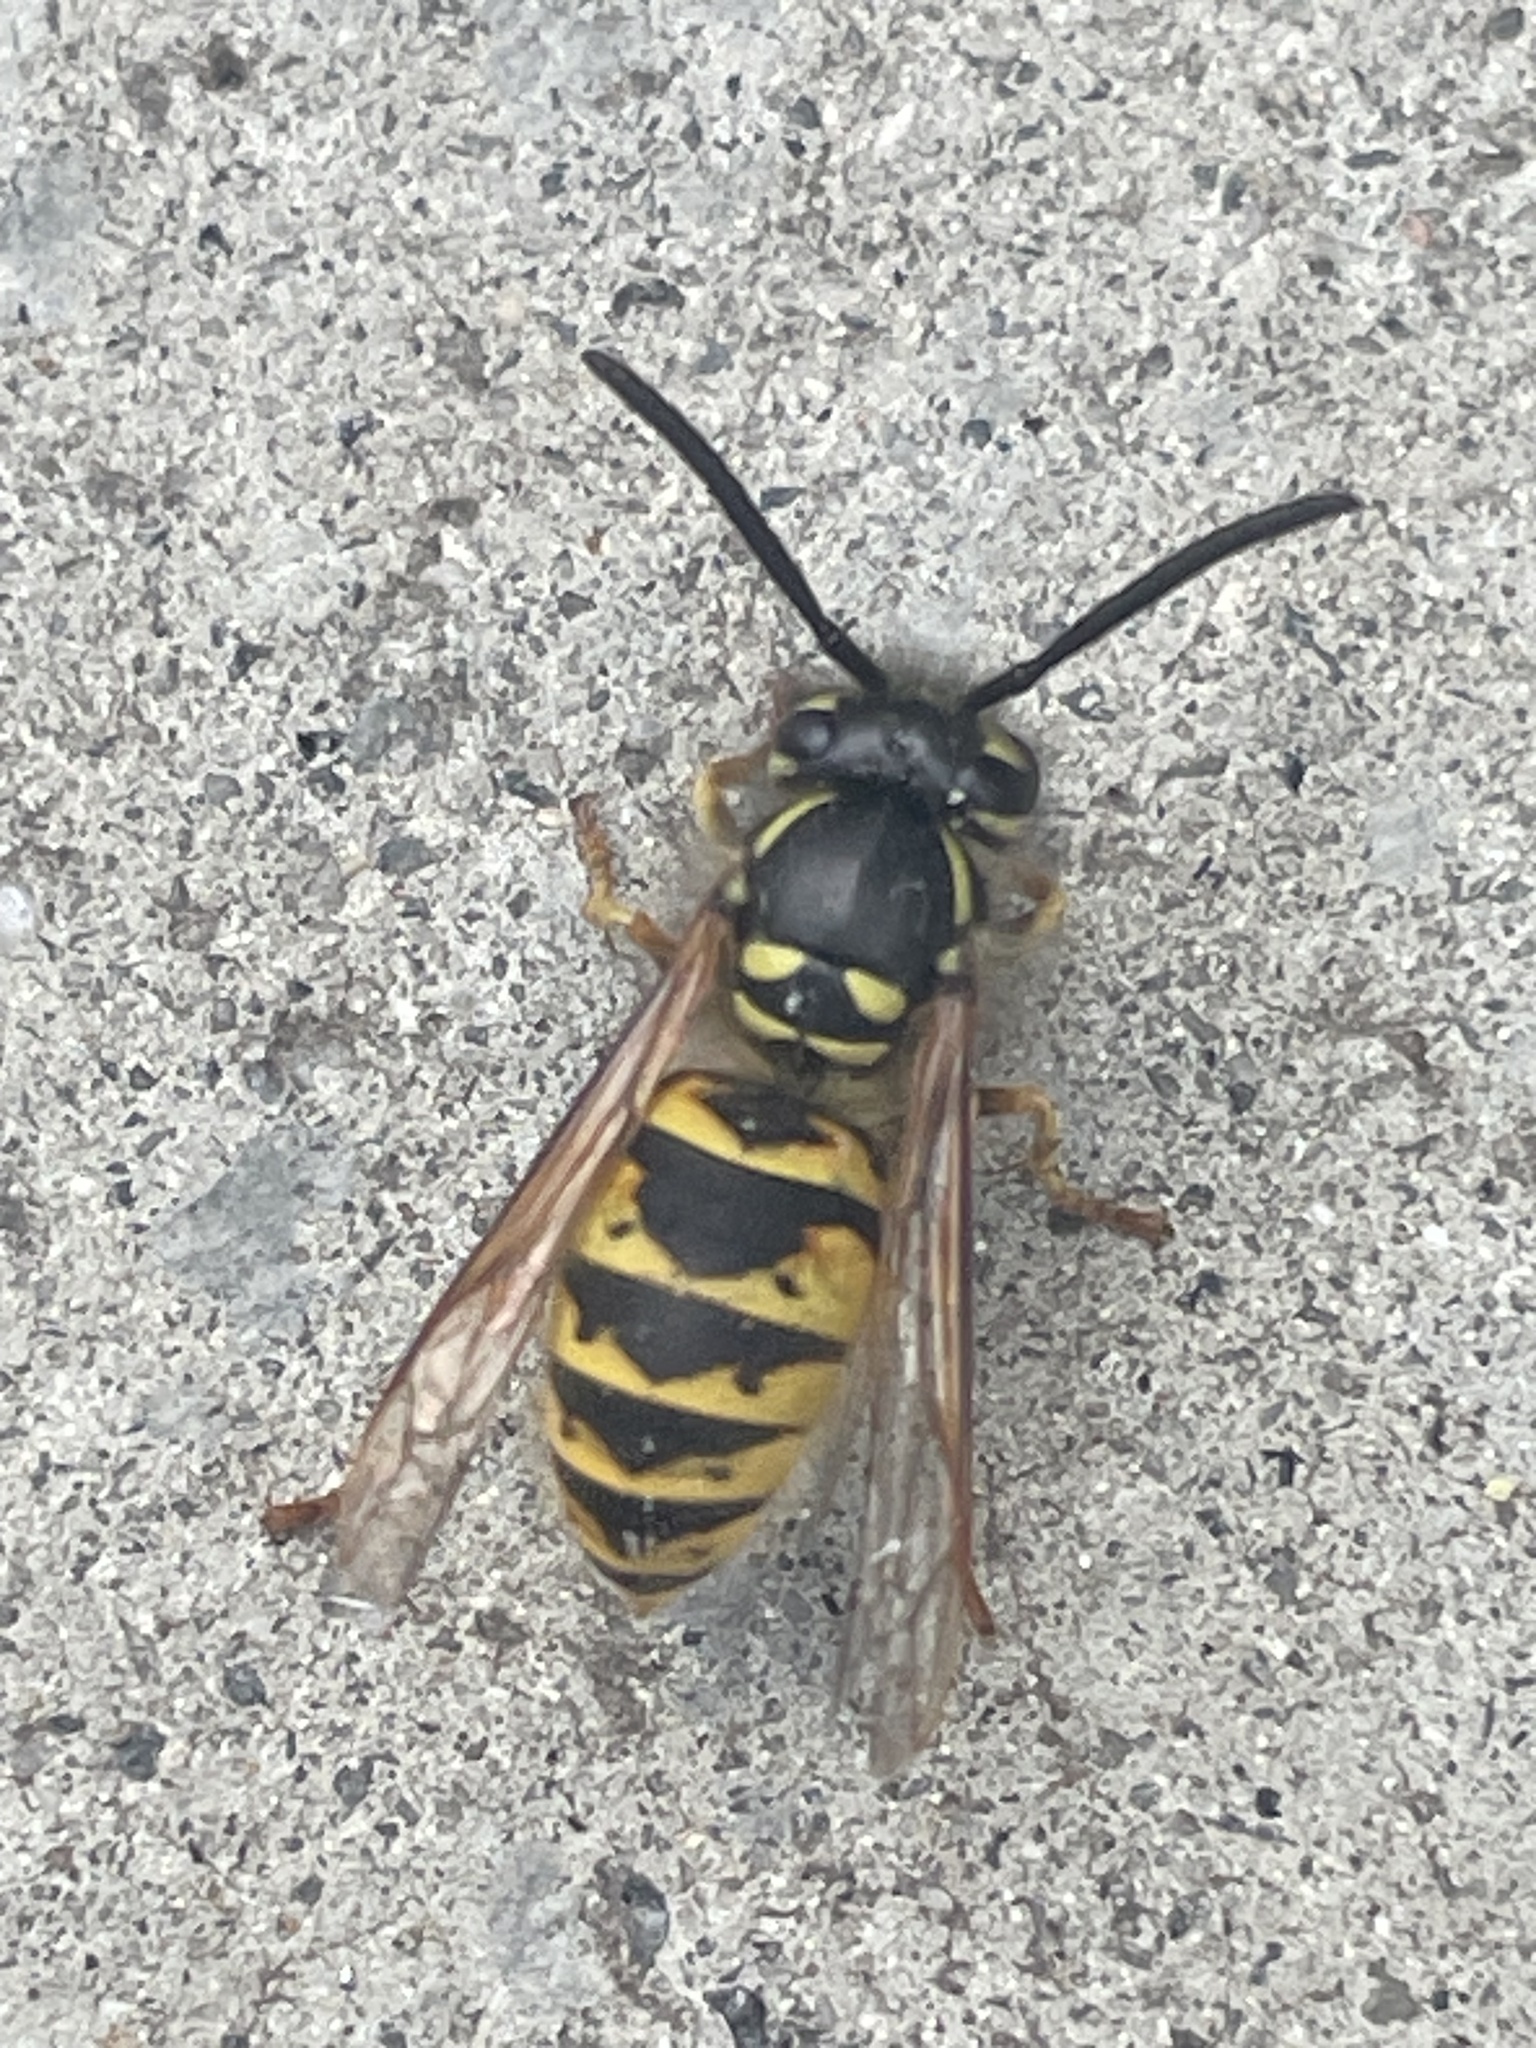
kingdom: Animalia
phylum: Arthropoda
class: Insecta
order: Hymenoptera
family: Vespidae
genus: Vespula
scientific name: Vespula vulgaris
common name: Common wasp
